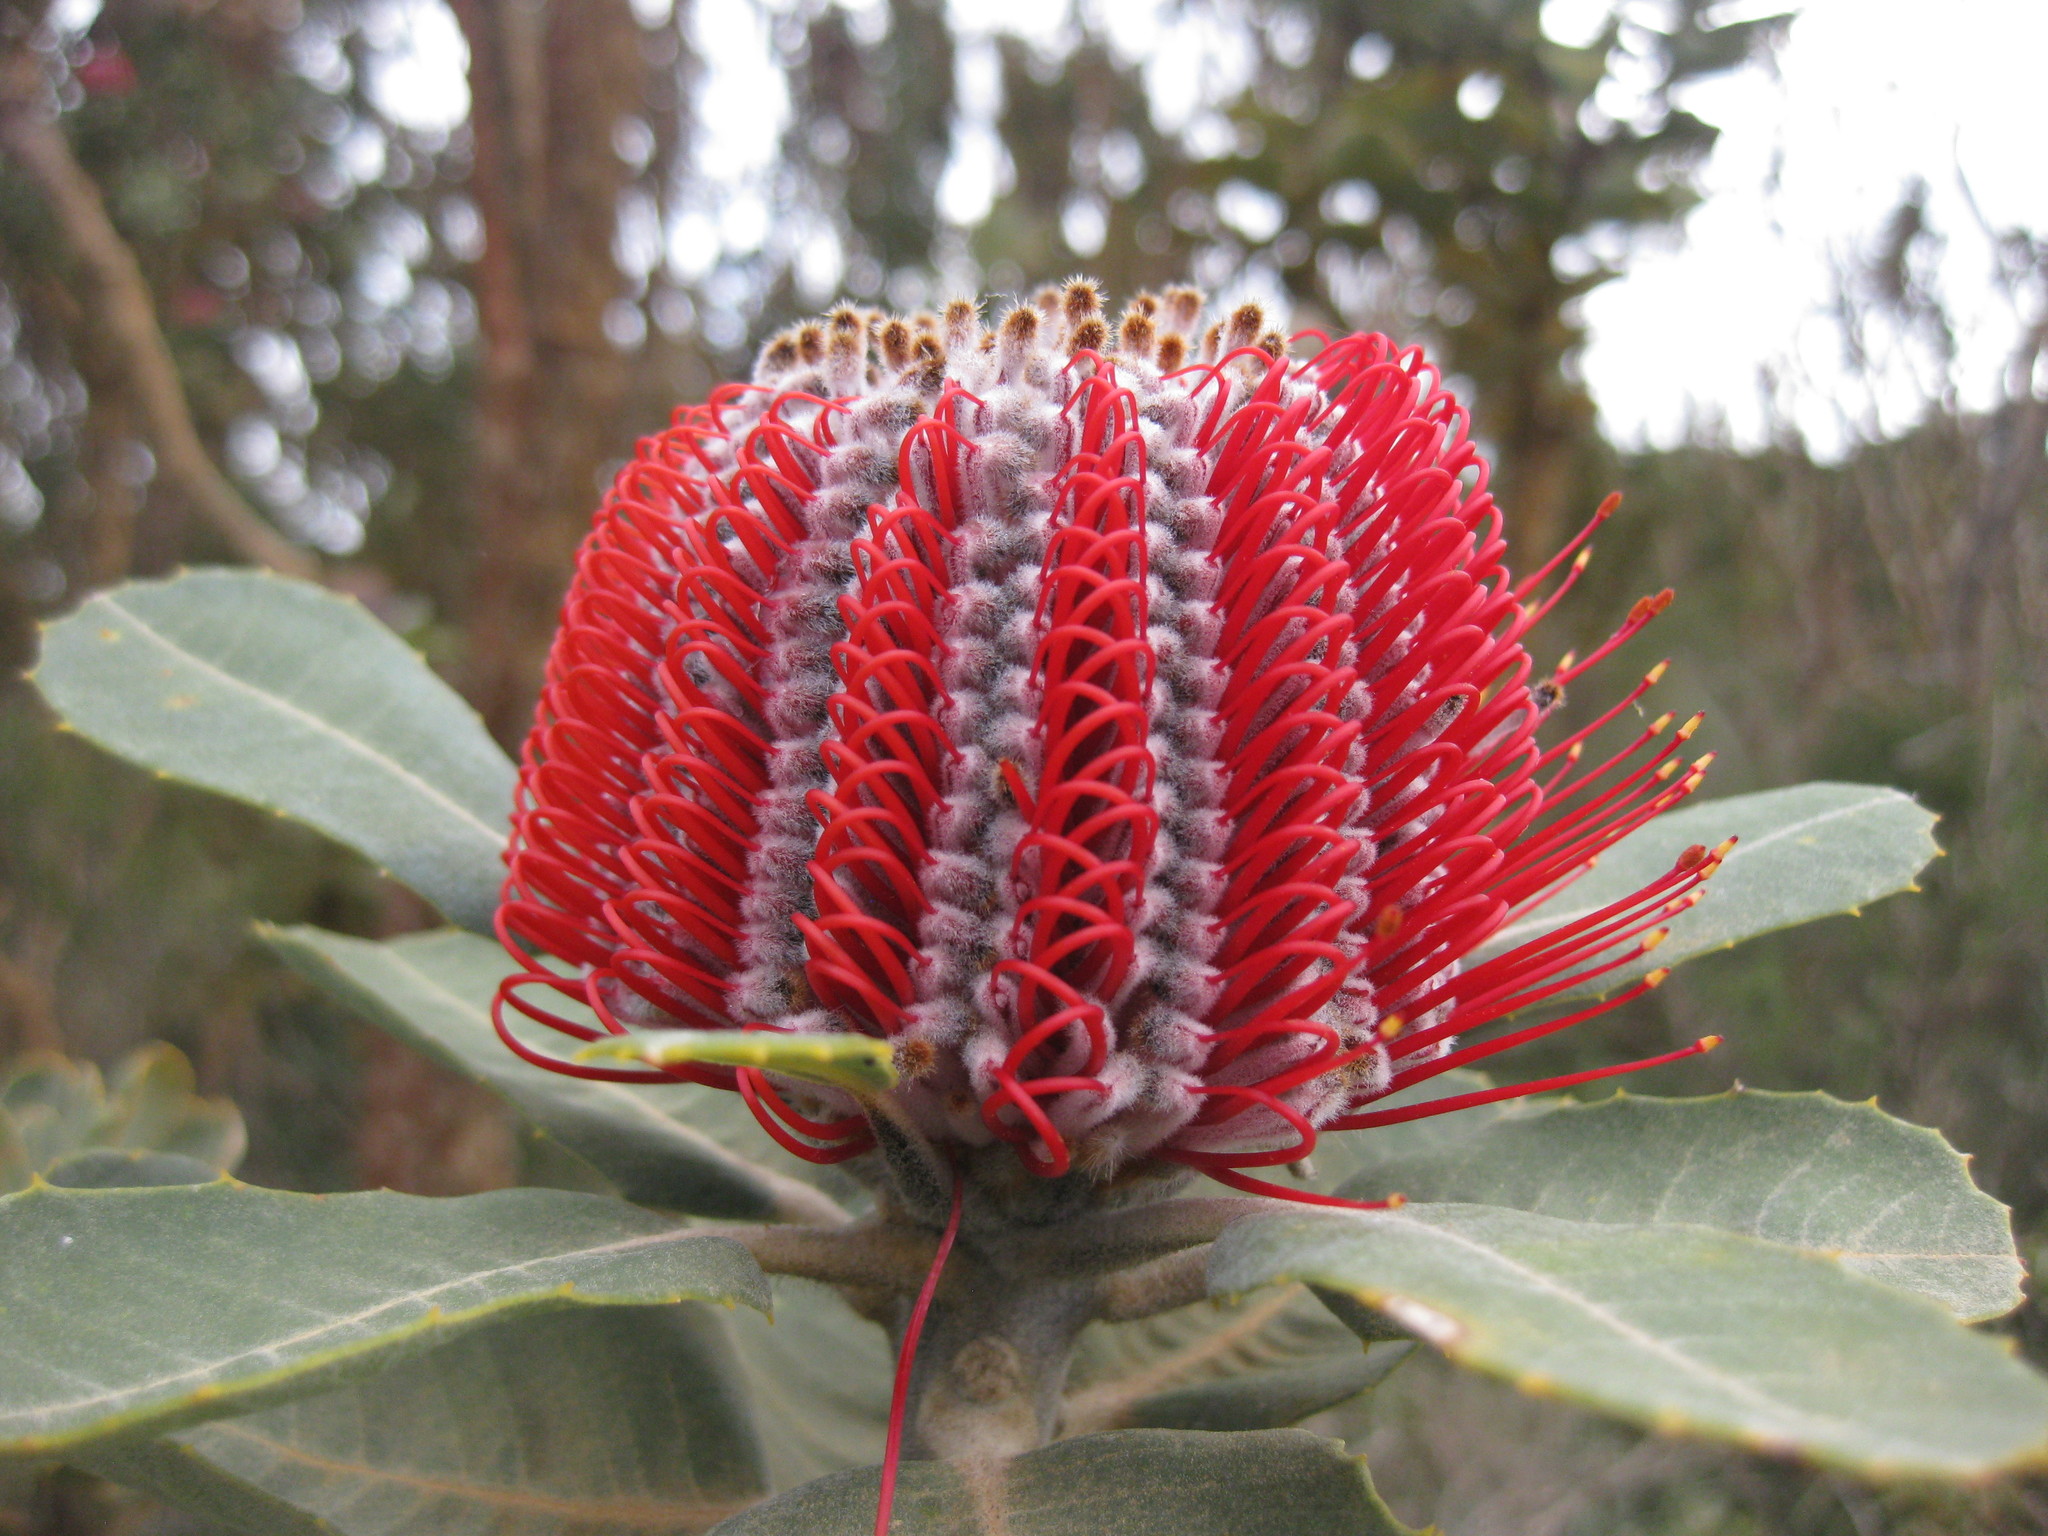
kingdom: Plantae
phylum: Tracheophyta
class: Magnoliopsida
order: Proteales
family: Proteaceae
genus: Banksia
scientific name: Banksia coccinea
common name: Scarlet banksia
